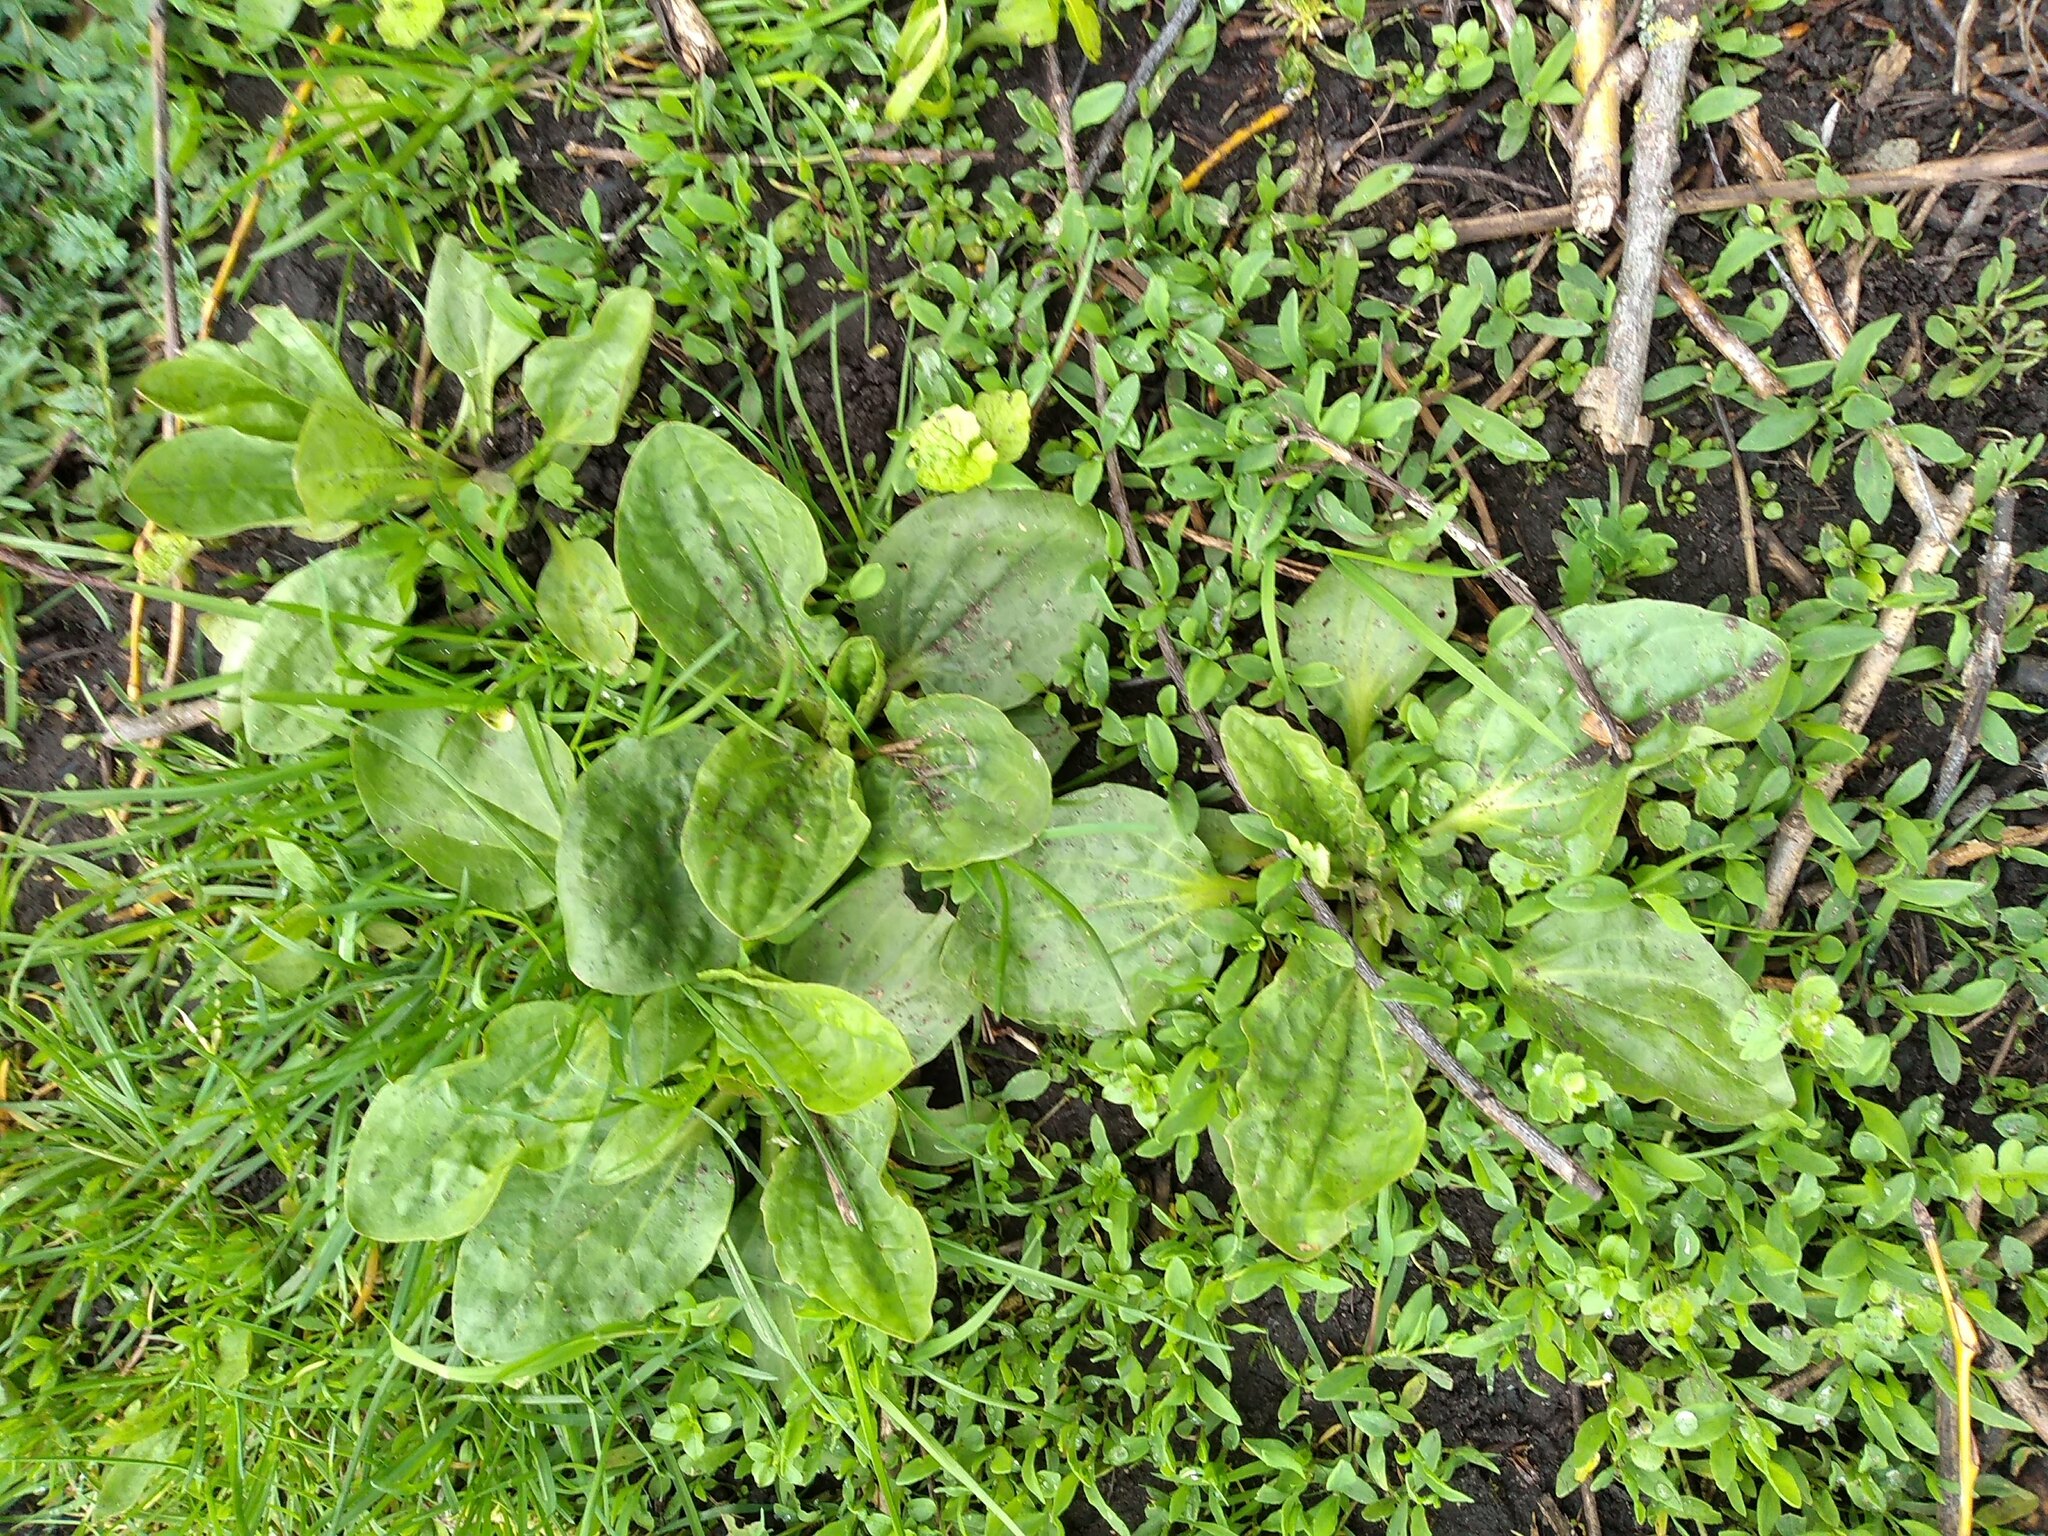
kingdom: Plantae
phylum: Tracheophyta
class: Magnoliopsida
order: Lamiales
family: Plantaginaceae
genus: Plantago
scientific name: Plantago major
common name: Common plantain
